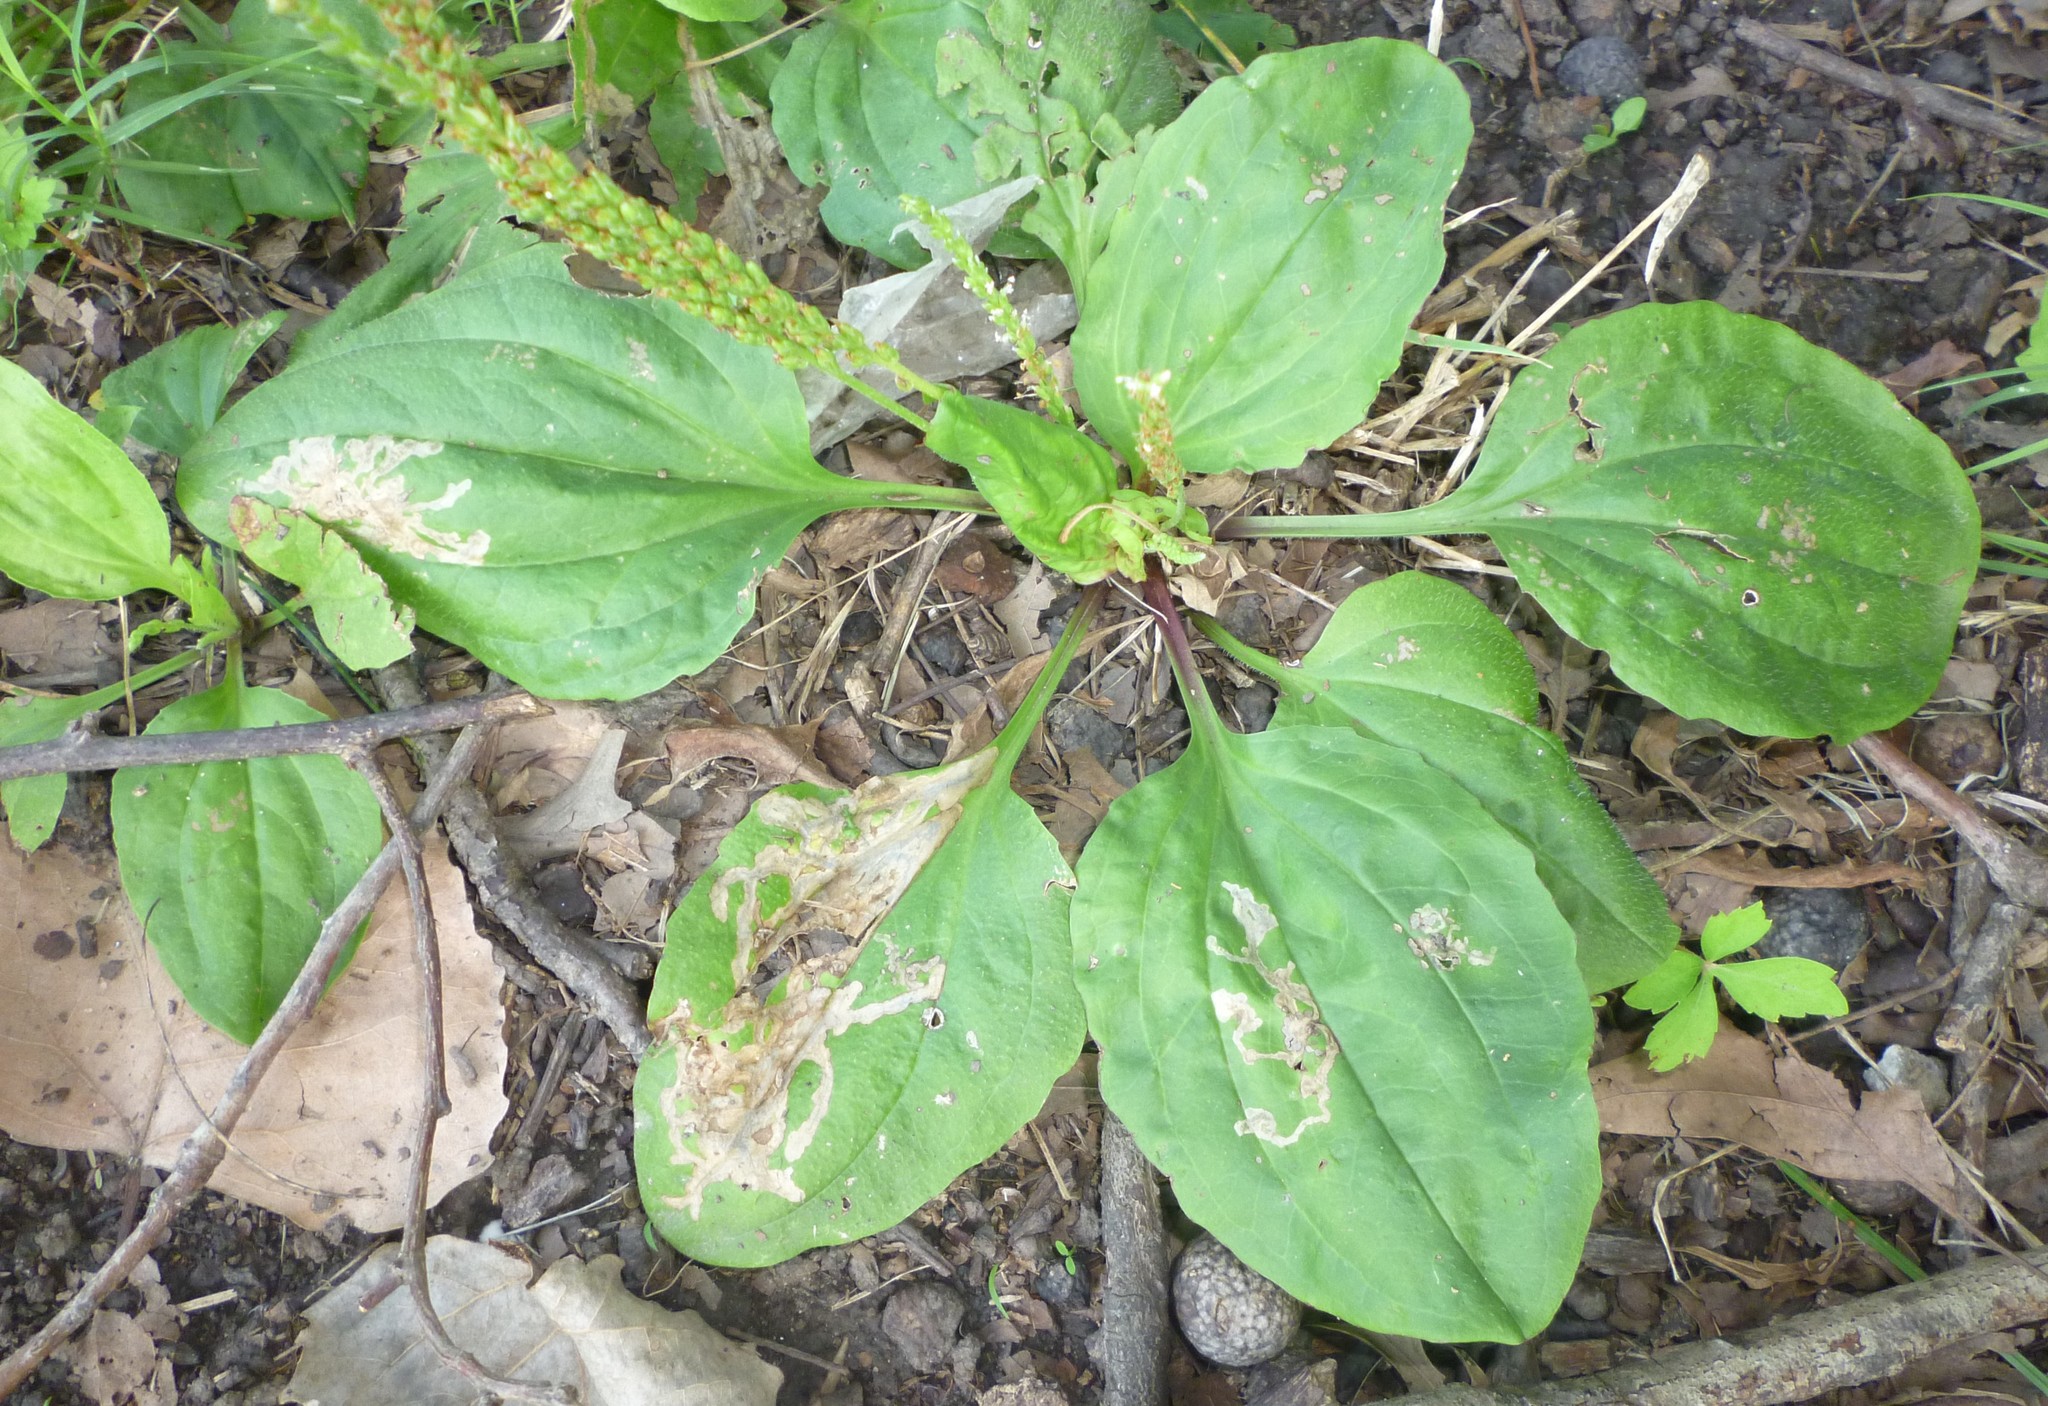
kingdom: Plantae
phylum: Tracheophyta
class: Magnoliopsida
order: Lamiales
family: Plantaginaceae
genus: Plantago
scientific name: Plantago rugelii
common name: American plantain
